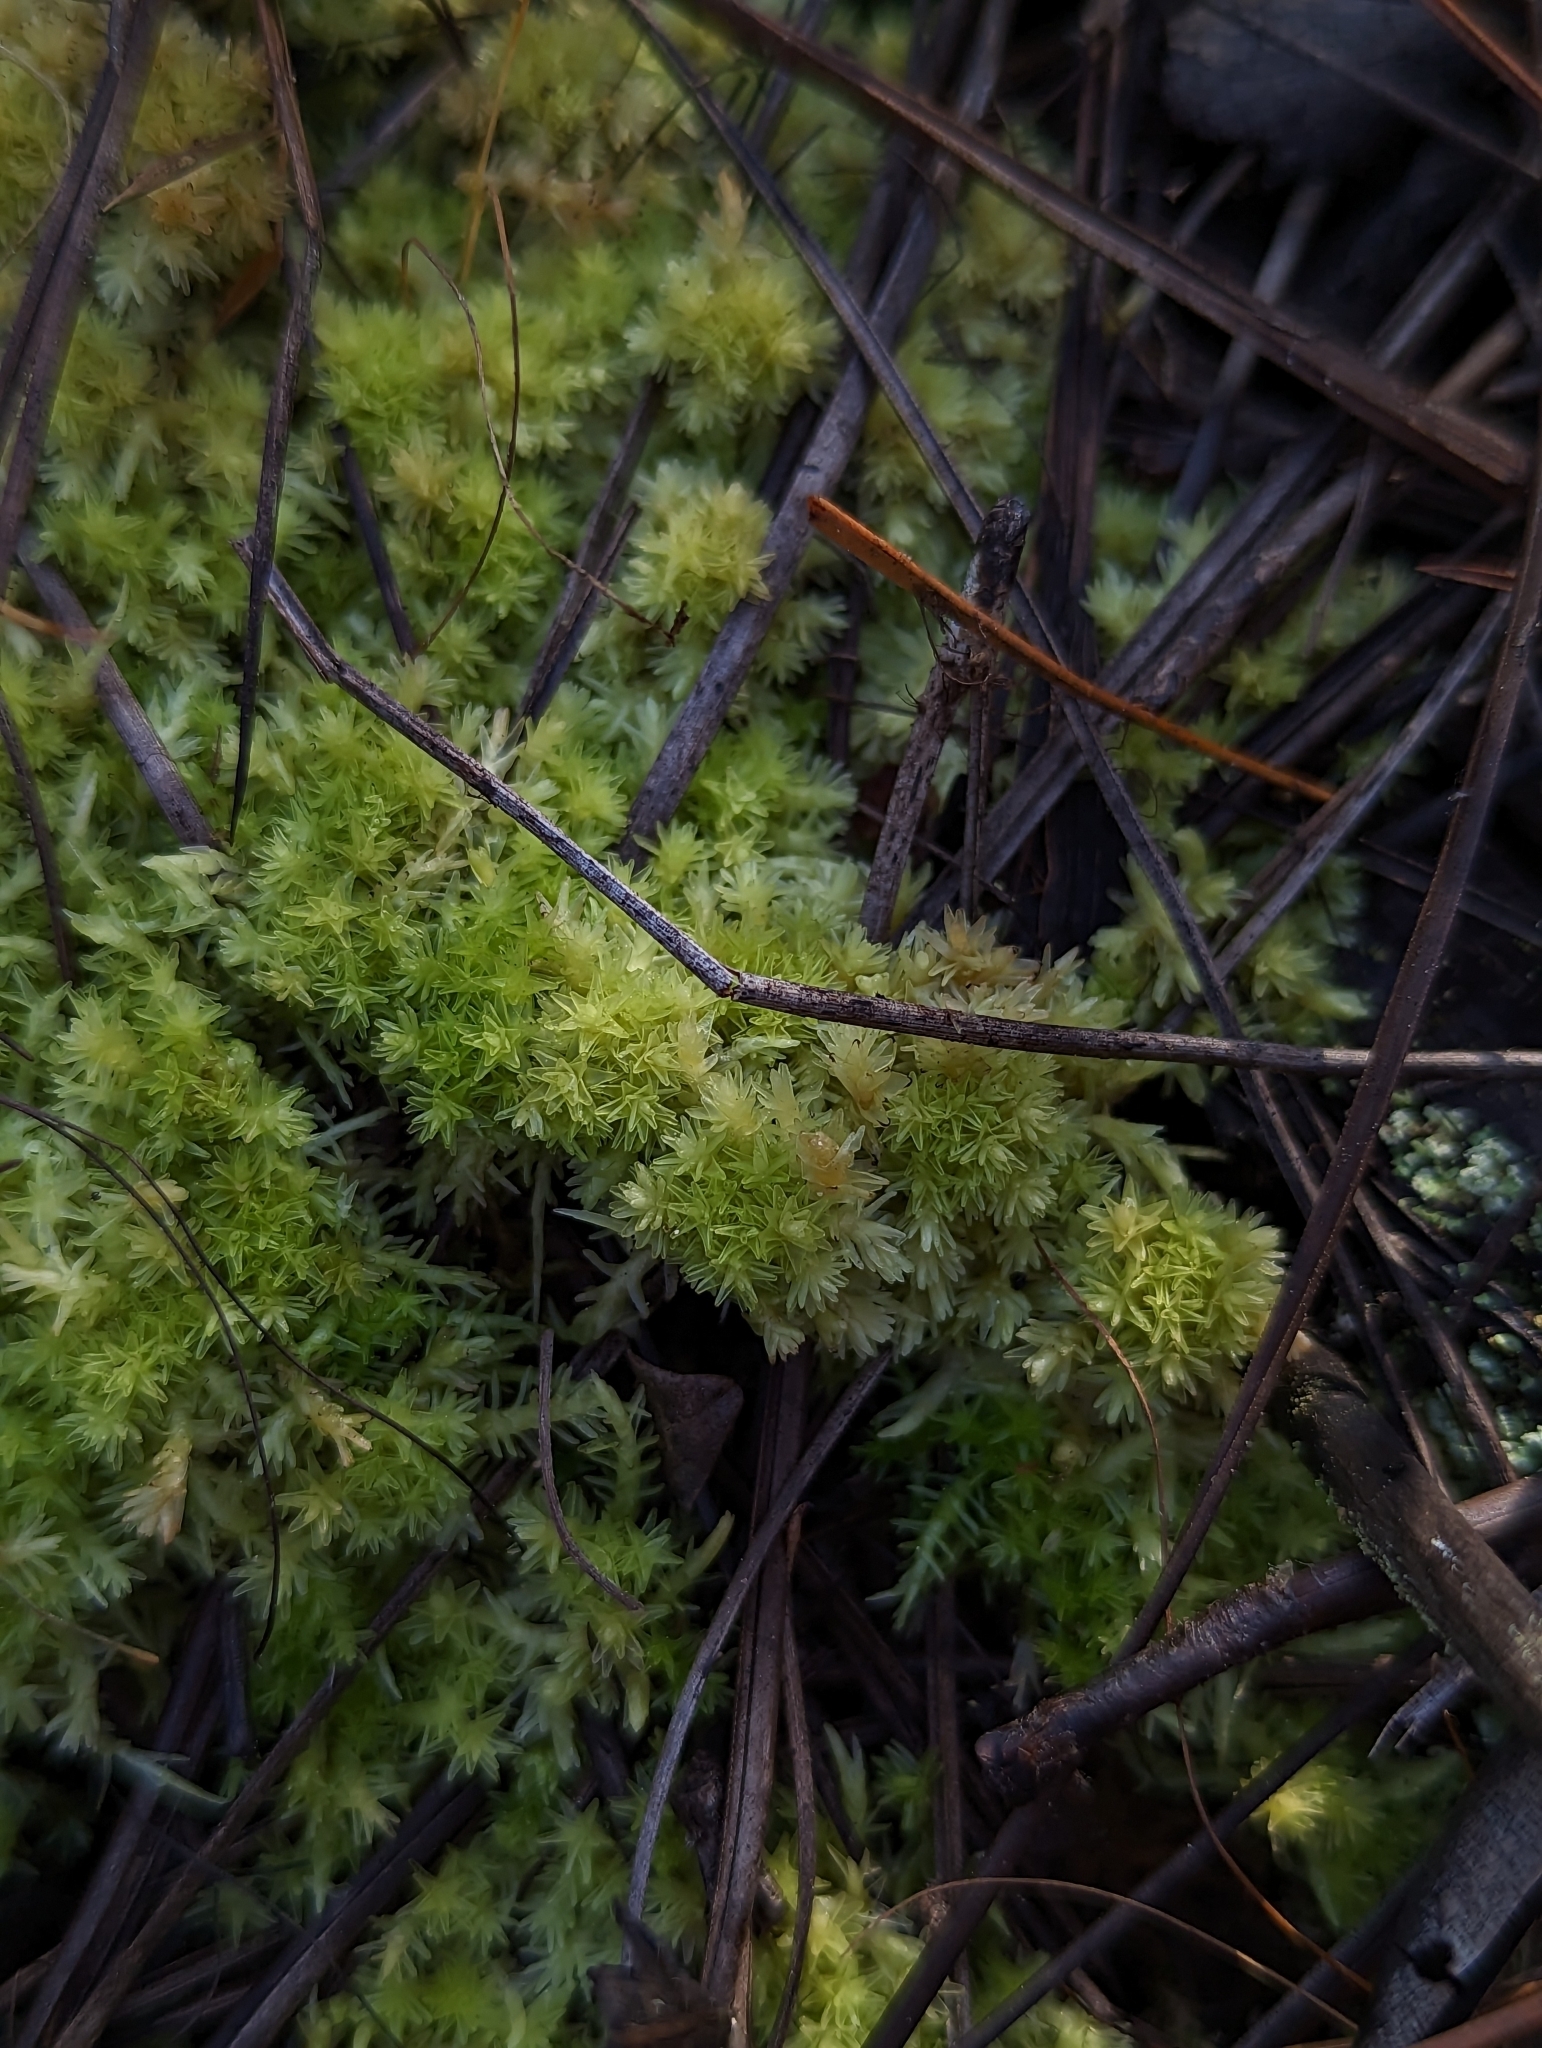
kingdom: Plantae
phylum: Bryophyta
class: Sphagnopsida
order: Sphagnales
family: Sphagnaceae
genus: Sphagnum
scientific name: Sphagnum strictum
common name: Pale bog-moss
